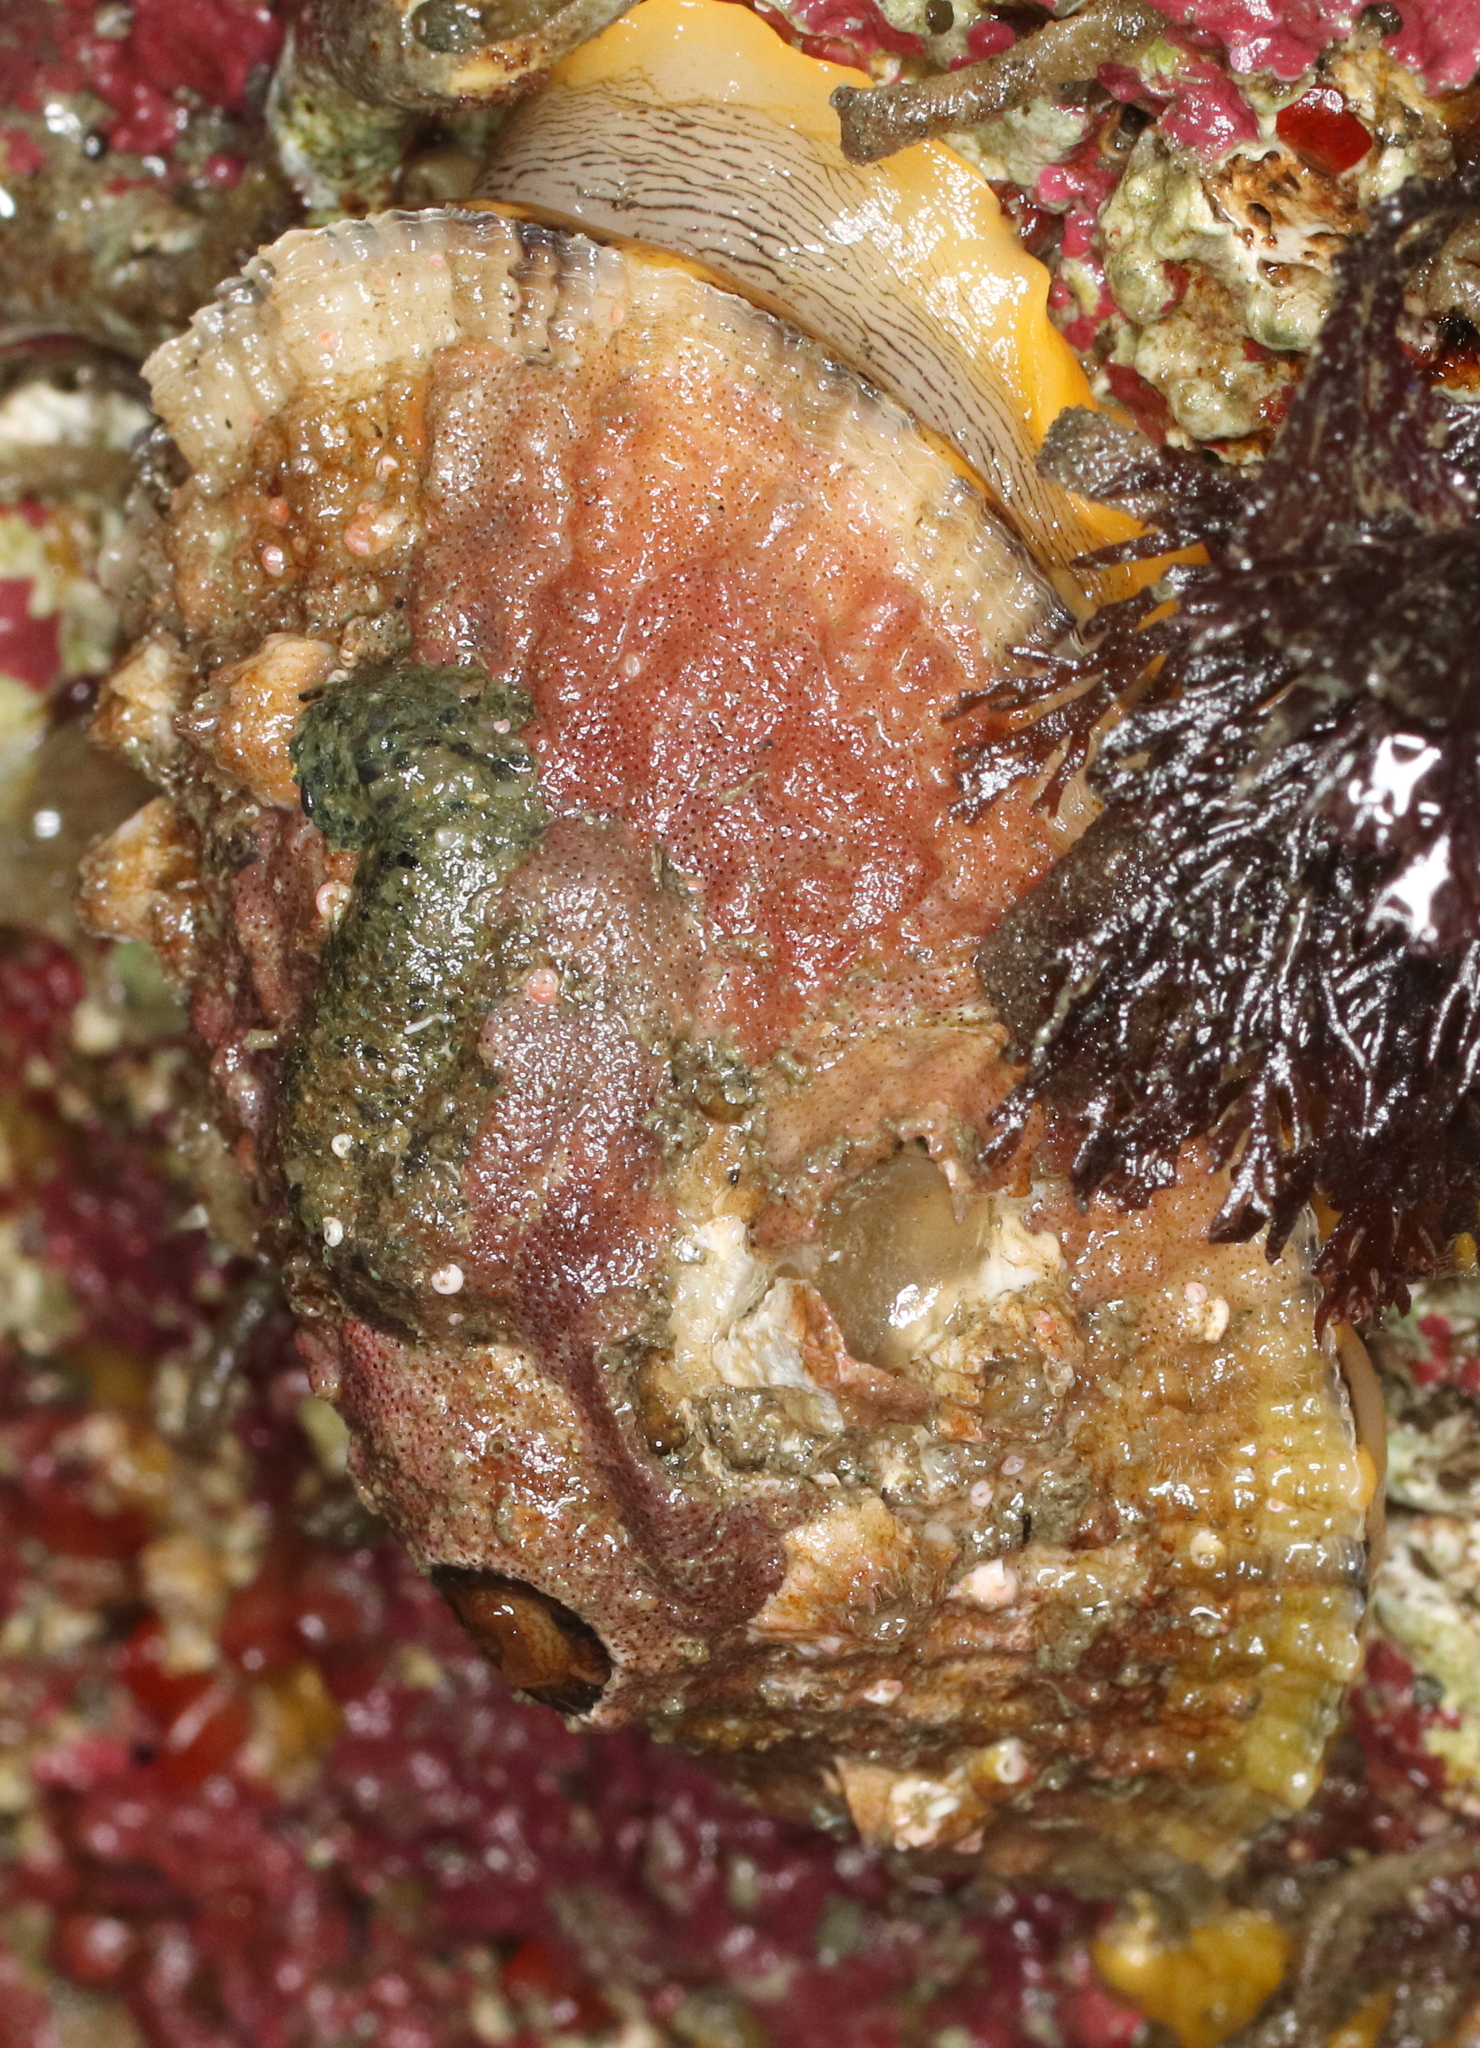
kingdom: Animalia
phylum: Mollusca
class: Gastropoda
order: Lepetellida
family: Fissurellidae
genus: Diodora
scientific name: Diodora aspera
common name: Rough keyhole limpet
